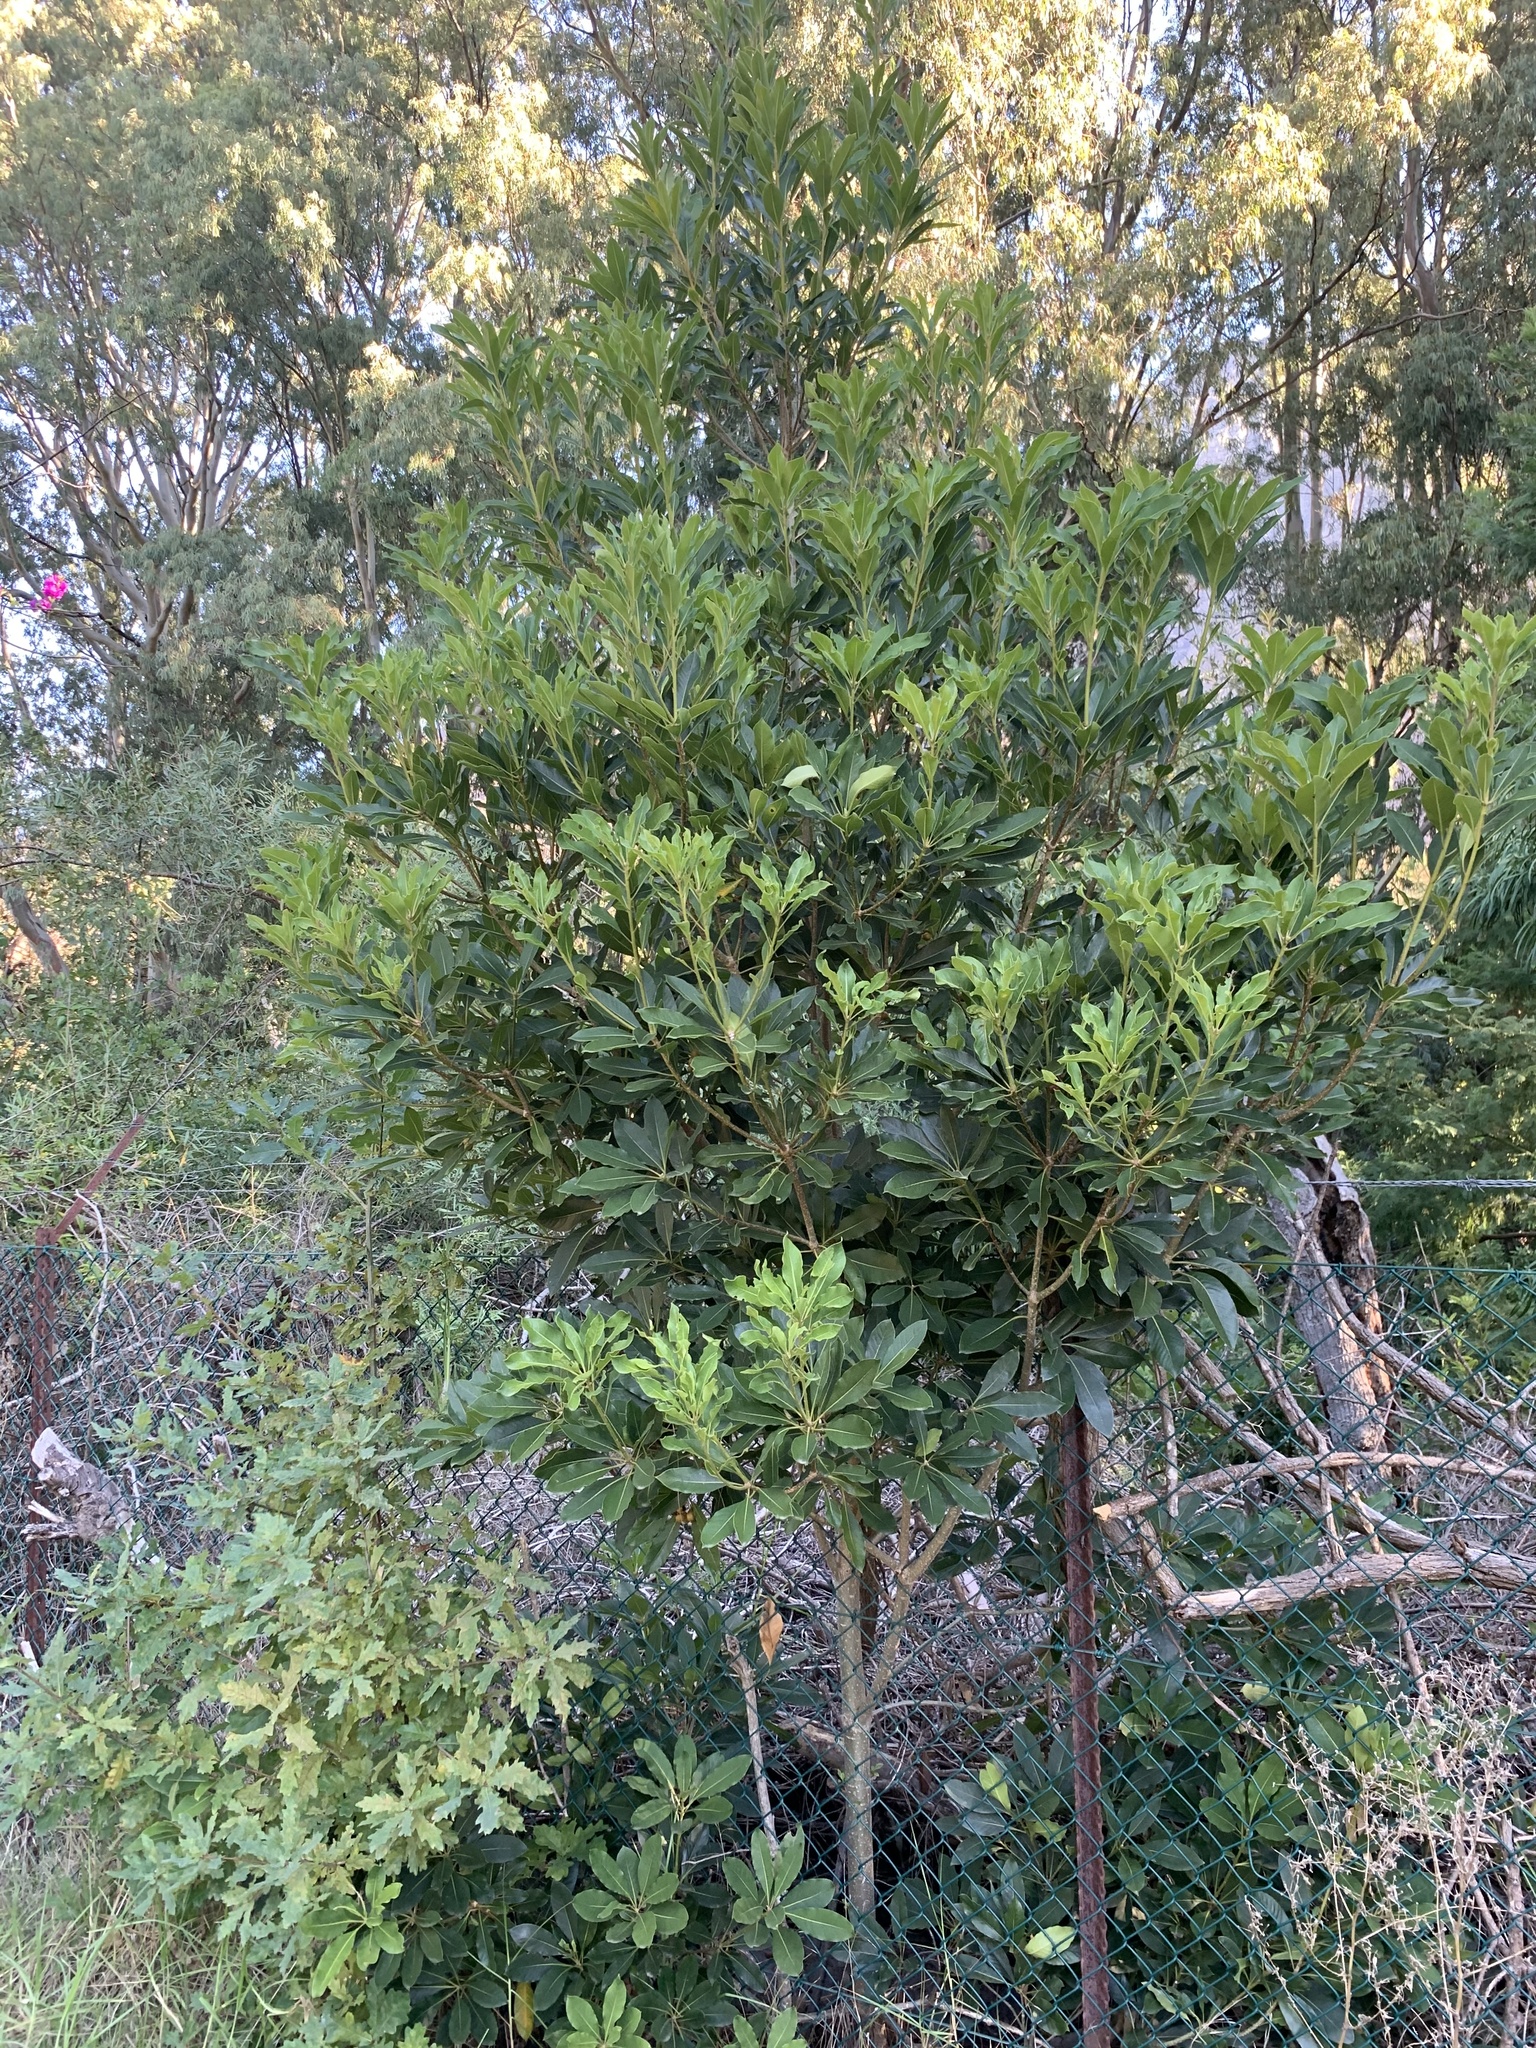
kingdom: Plantae
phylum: Tracheophyta
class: Magnoliopsida
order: Apiales
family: Pittosporaceae
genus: Pittosporum
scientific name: Pittosporum undulatum
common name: Australian cheesewood
